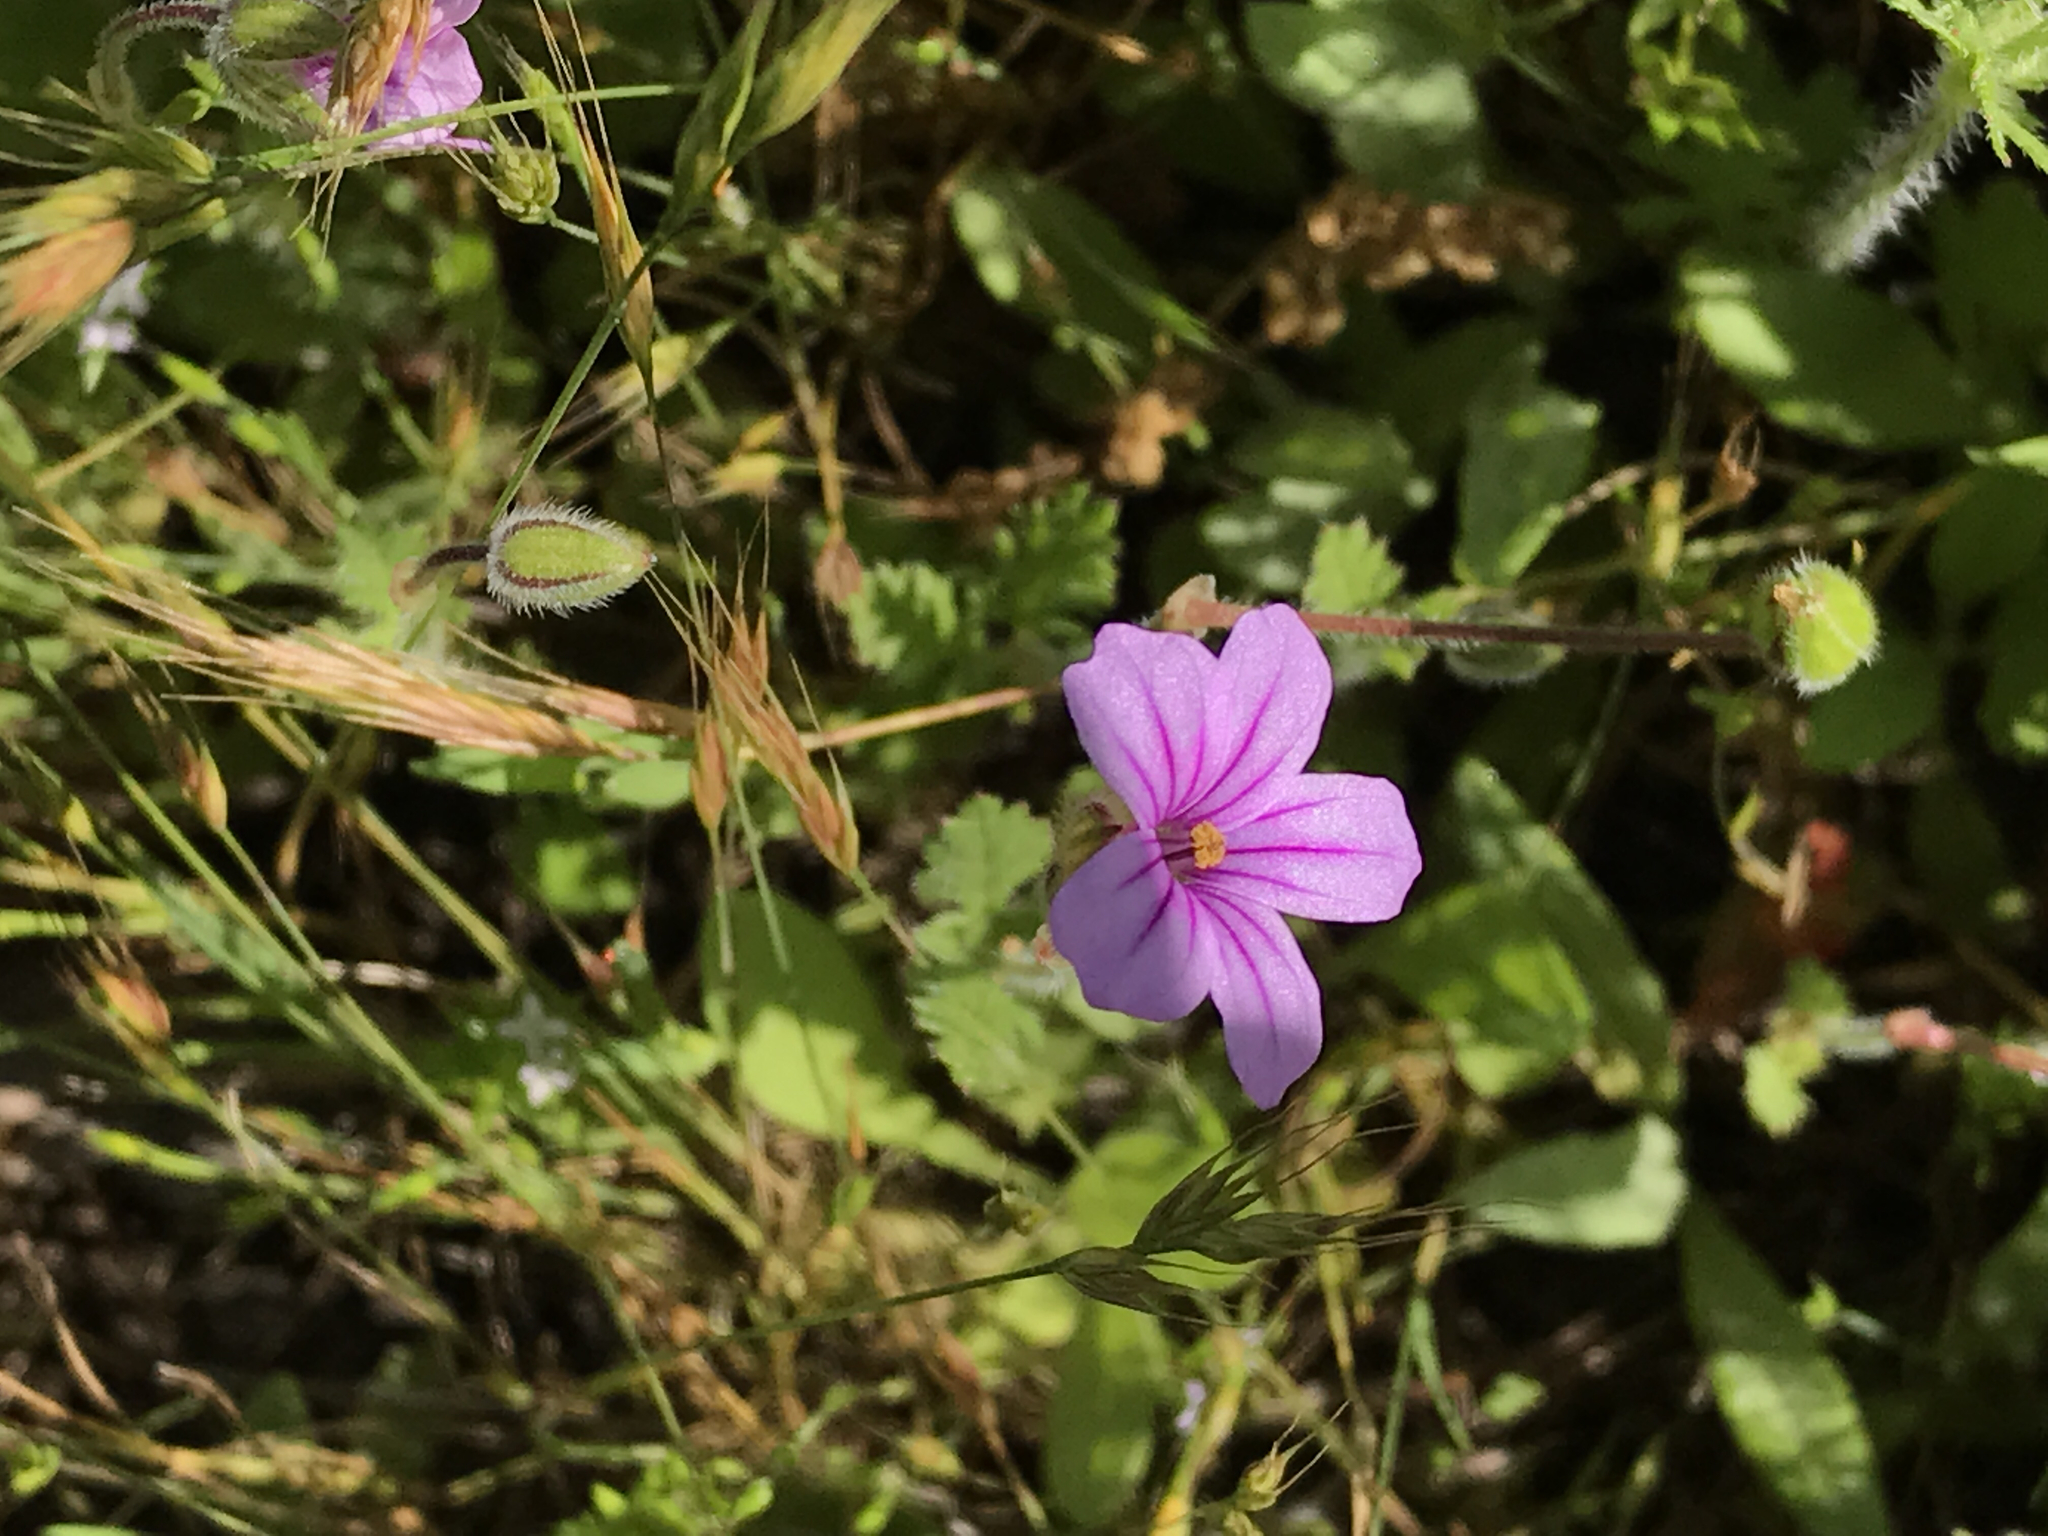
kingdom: Plantae
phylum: Tracheophyta
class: Magnoliopsida
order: Geraniales
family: Geraniaceae
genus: Erodium
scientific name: Erodium botrys
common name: Mediterranean stork's-bill
